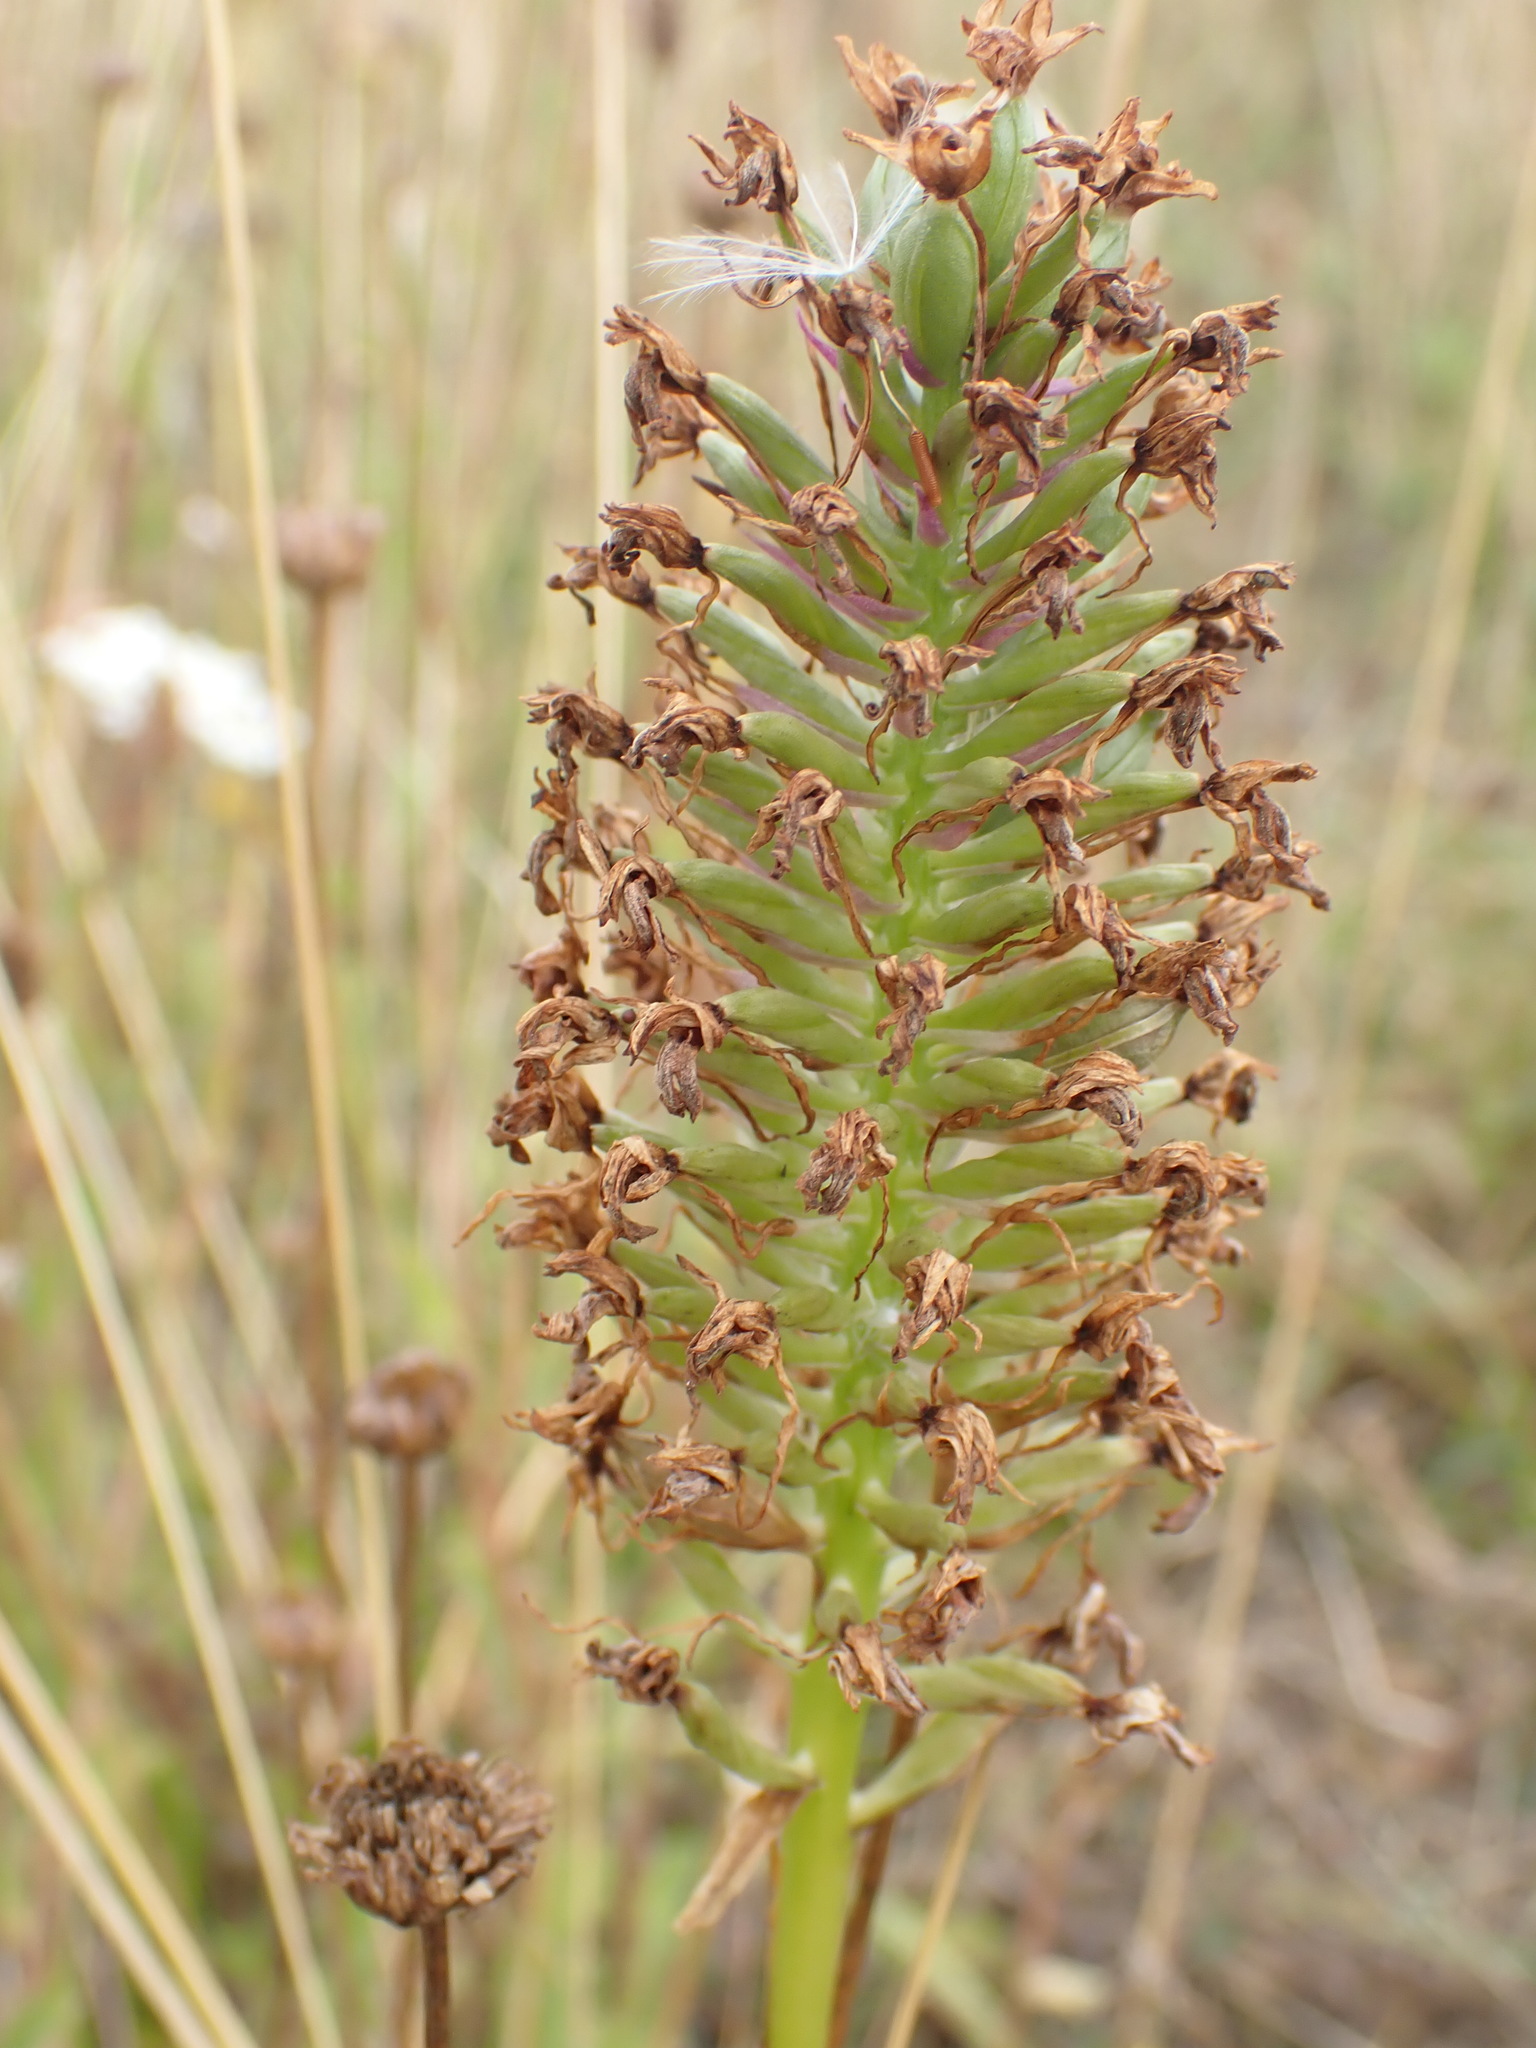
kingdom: Plantae
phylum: Tracheophyta
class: Liliopsida
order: Asparagales
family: Orchidaceae
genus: Anacamptis
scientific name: Anacamptis pyramidalis
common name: Pyramidal orchid
